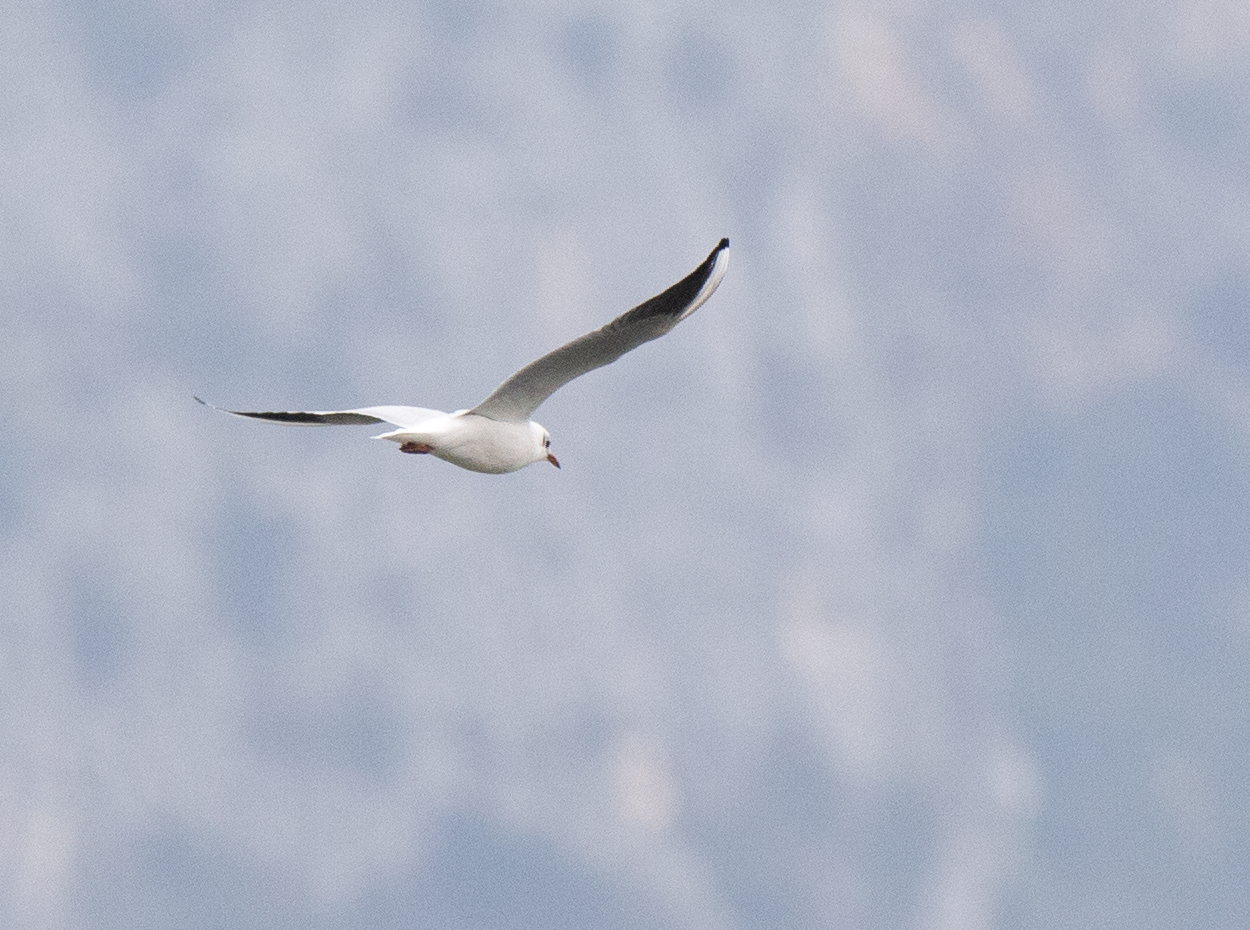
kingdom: Animalia
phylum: Chordata
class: Aves
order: Charadriiformes
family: Laridae
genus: Chroicocephalus
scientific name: Chroicocephalus ridibundus
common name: Black-headed gull
